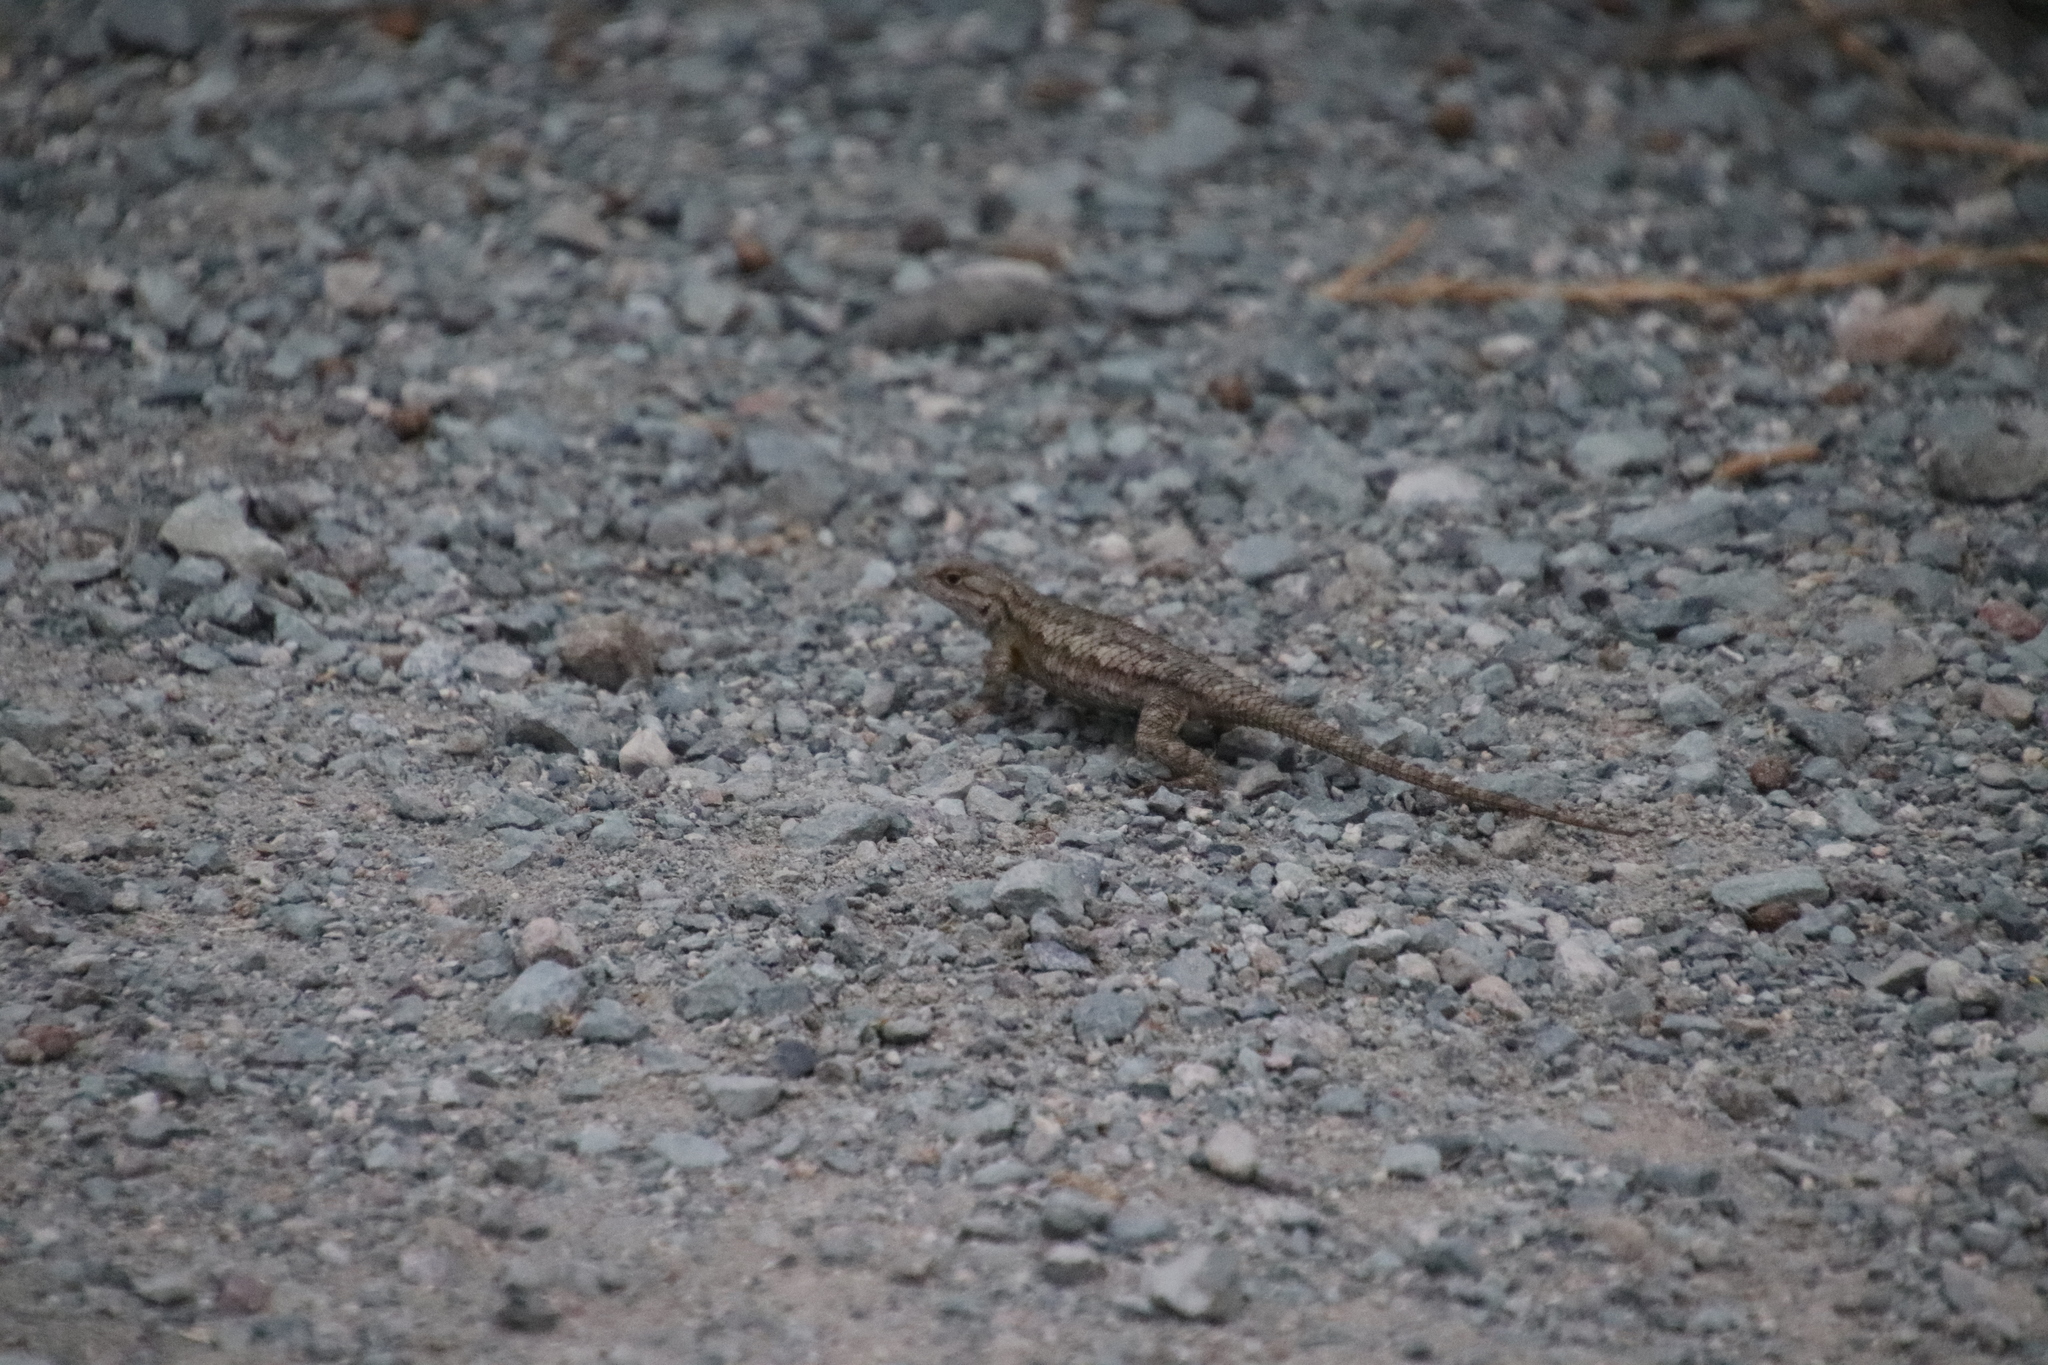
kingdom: Animalia
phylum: Chordata
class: Squamata
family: Phrynosomatidae
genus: Sceloporus
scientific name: Sceloporus occidentalis
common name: Western fence lizard
